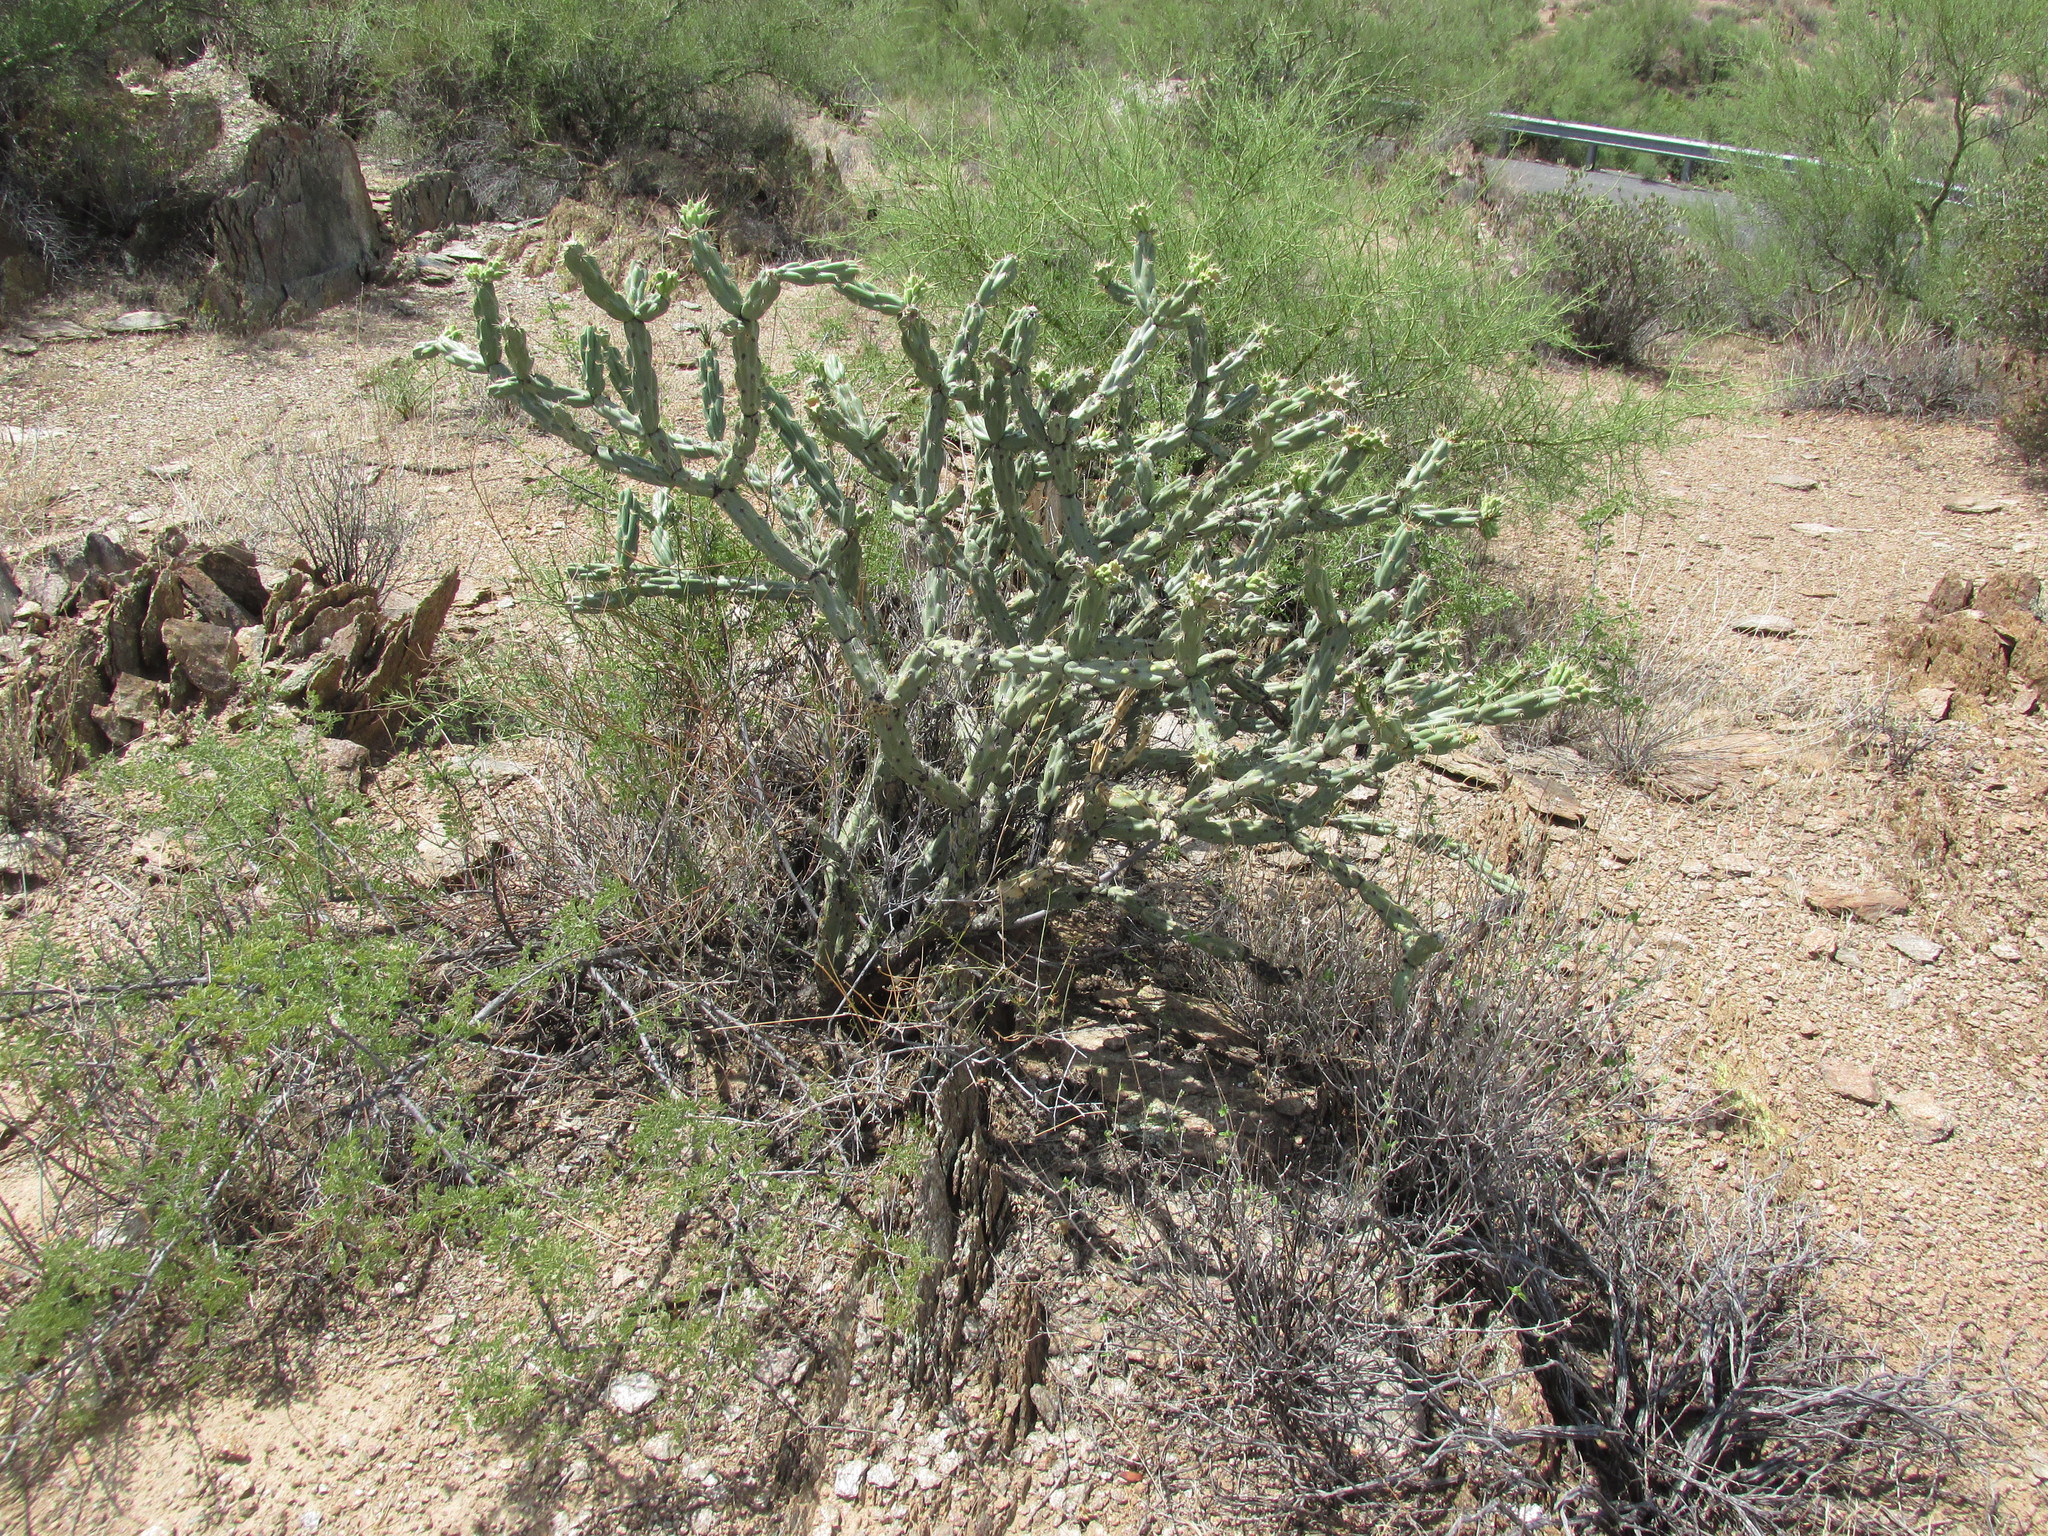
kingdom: Plantae
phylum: Tracheophyta
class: Magnoliopsida
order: Caryophyllales
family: Cactaceae
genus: Cylindropuntia
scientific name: Cylindropuntia acanthocarpa
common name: Buckhorn cholla
